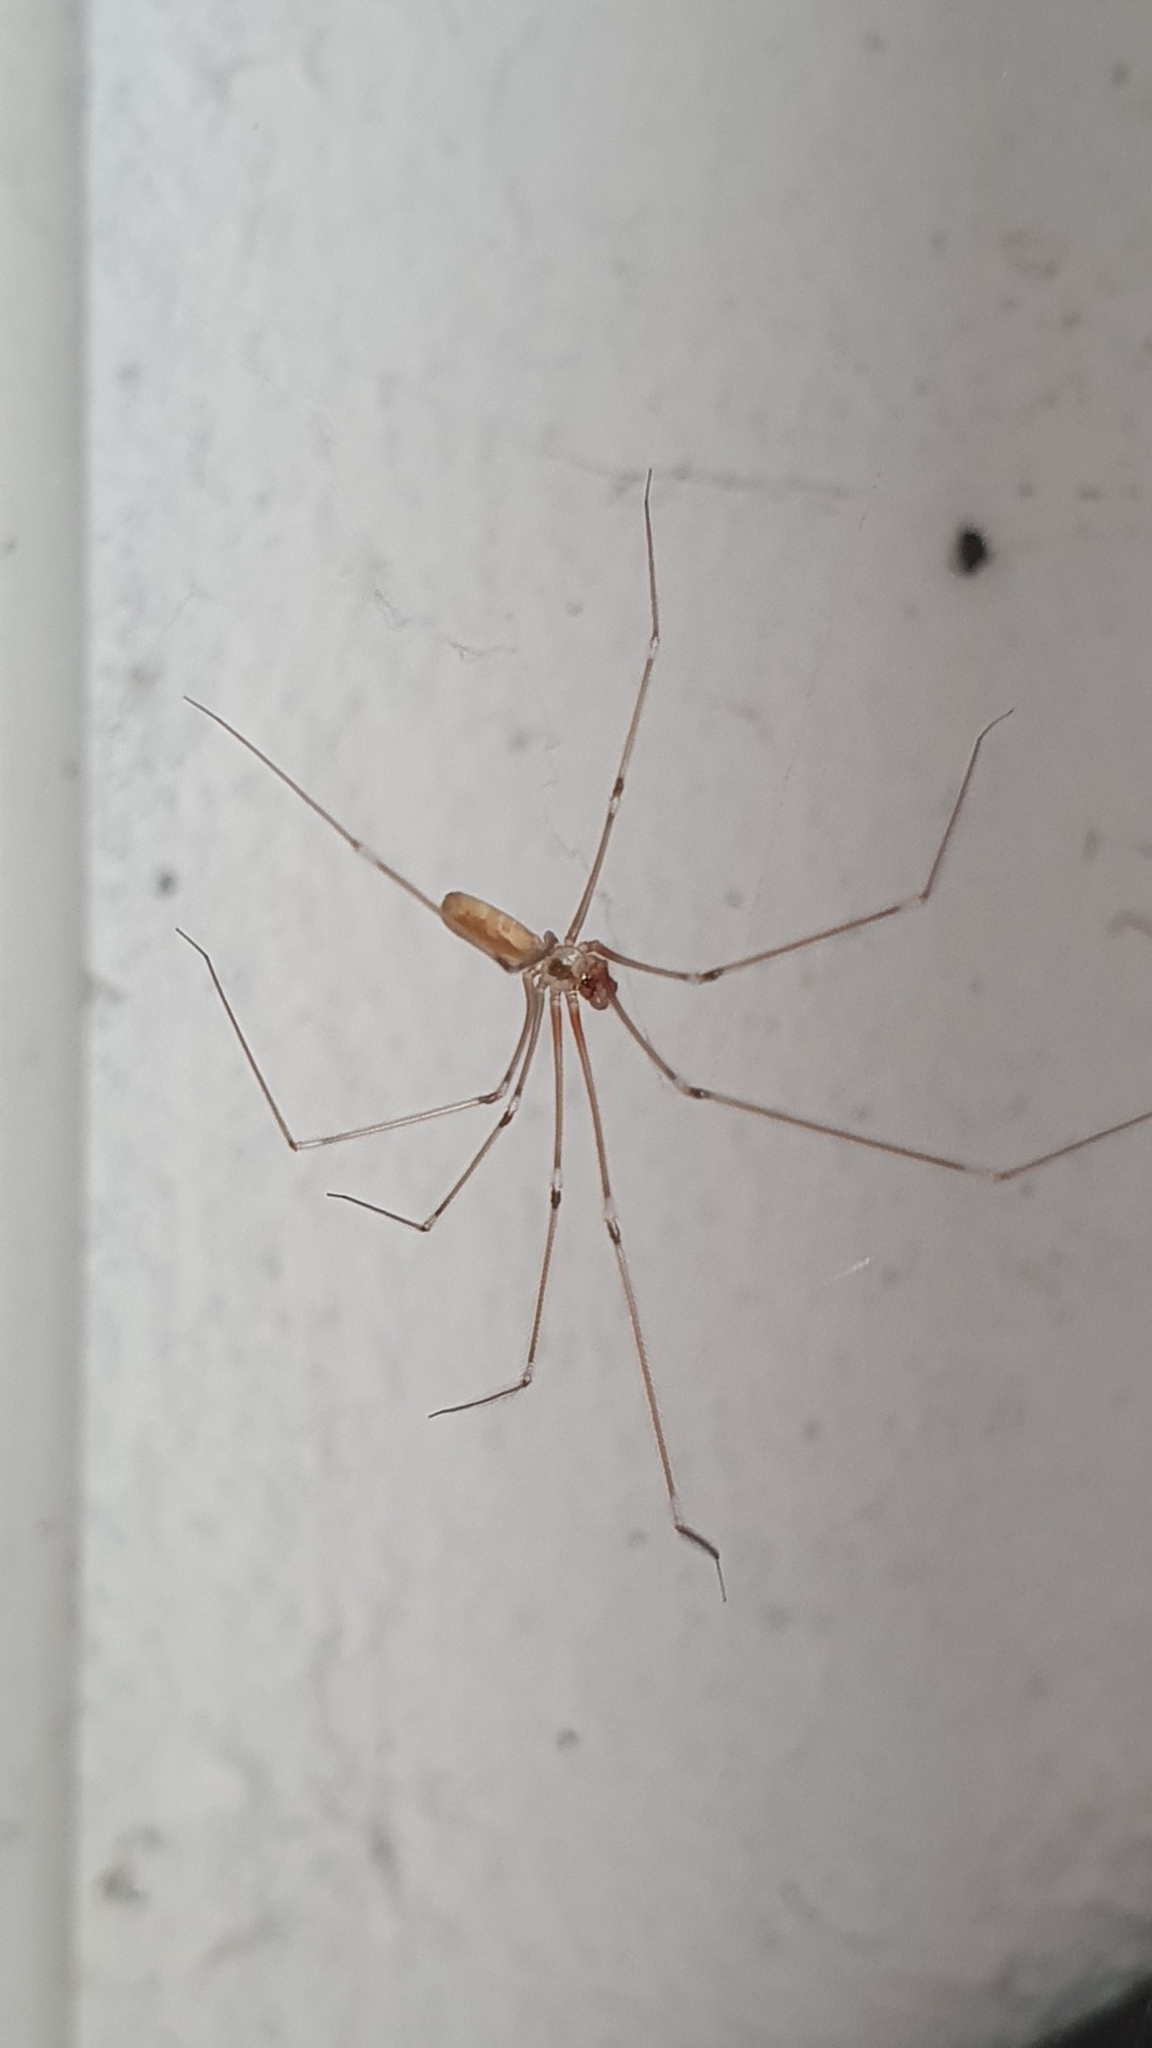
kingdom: Animalia
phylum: Arthropoda
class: Arachnida
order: Araneae
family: Pholcidae
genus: Pholcus
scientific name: Pholcus phalangioides
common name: Longbodied cellar spider
